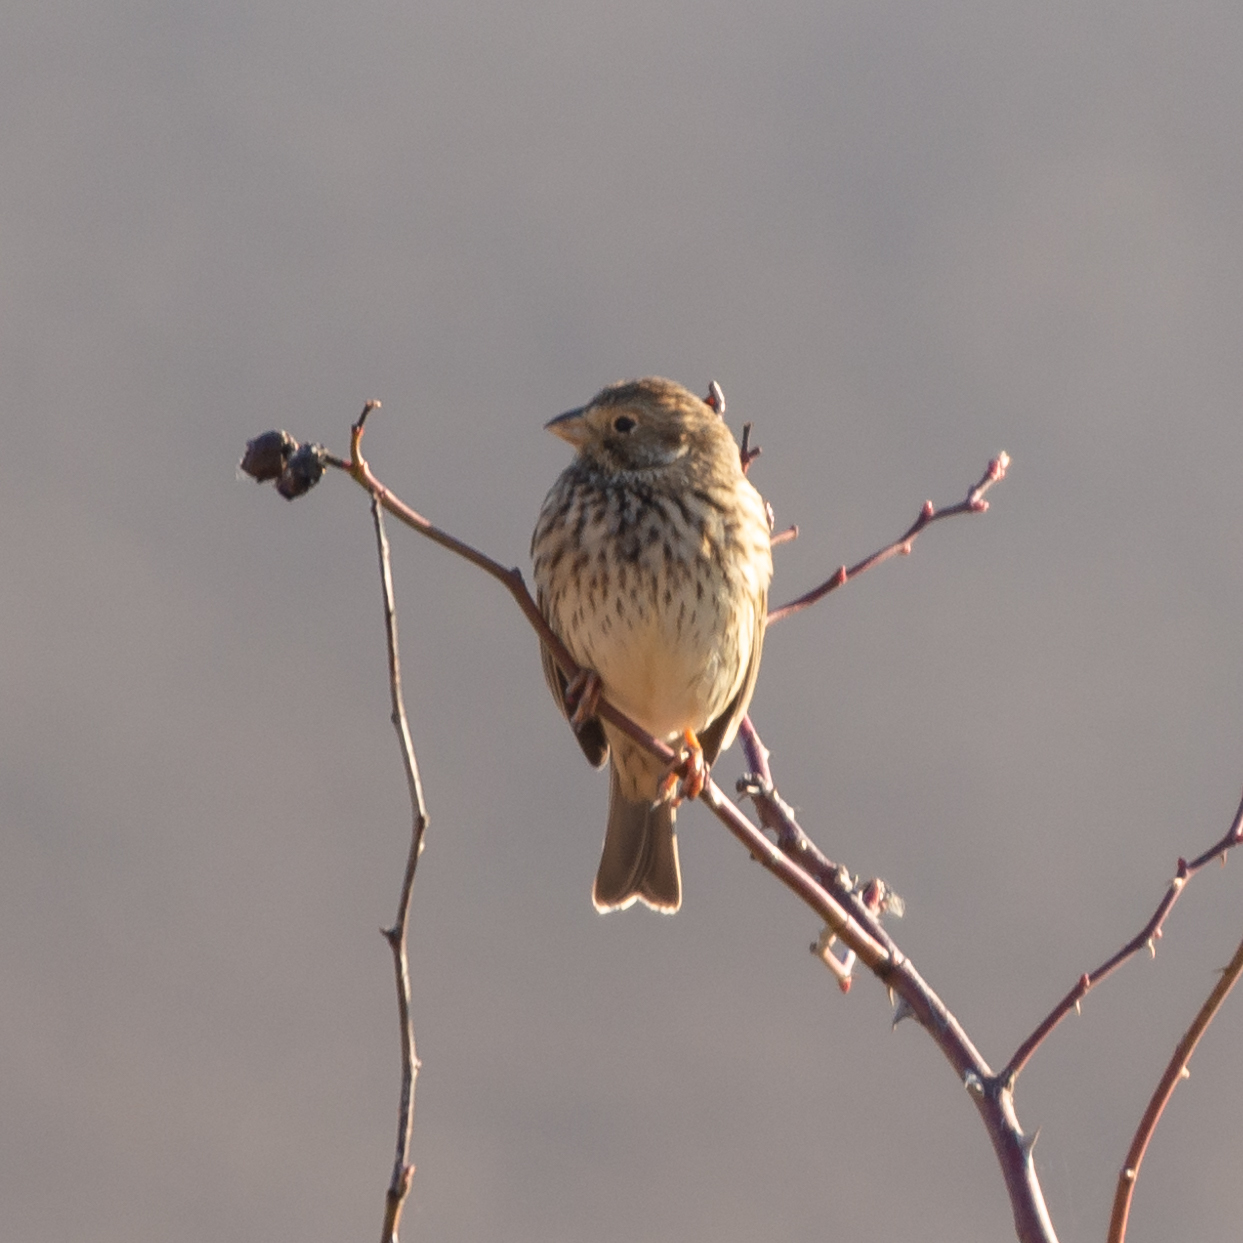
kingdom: Animalia
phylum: Chordata
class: Aves
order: Passeriformes
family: Emberizidae
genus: Emberiza
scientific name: Emberiza calandra
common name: Corn bunting
